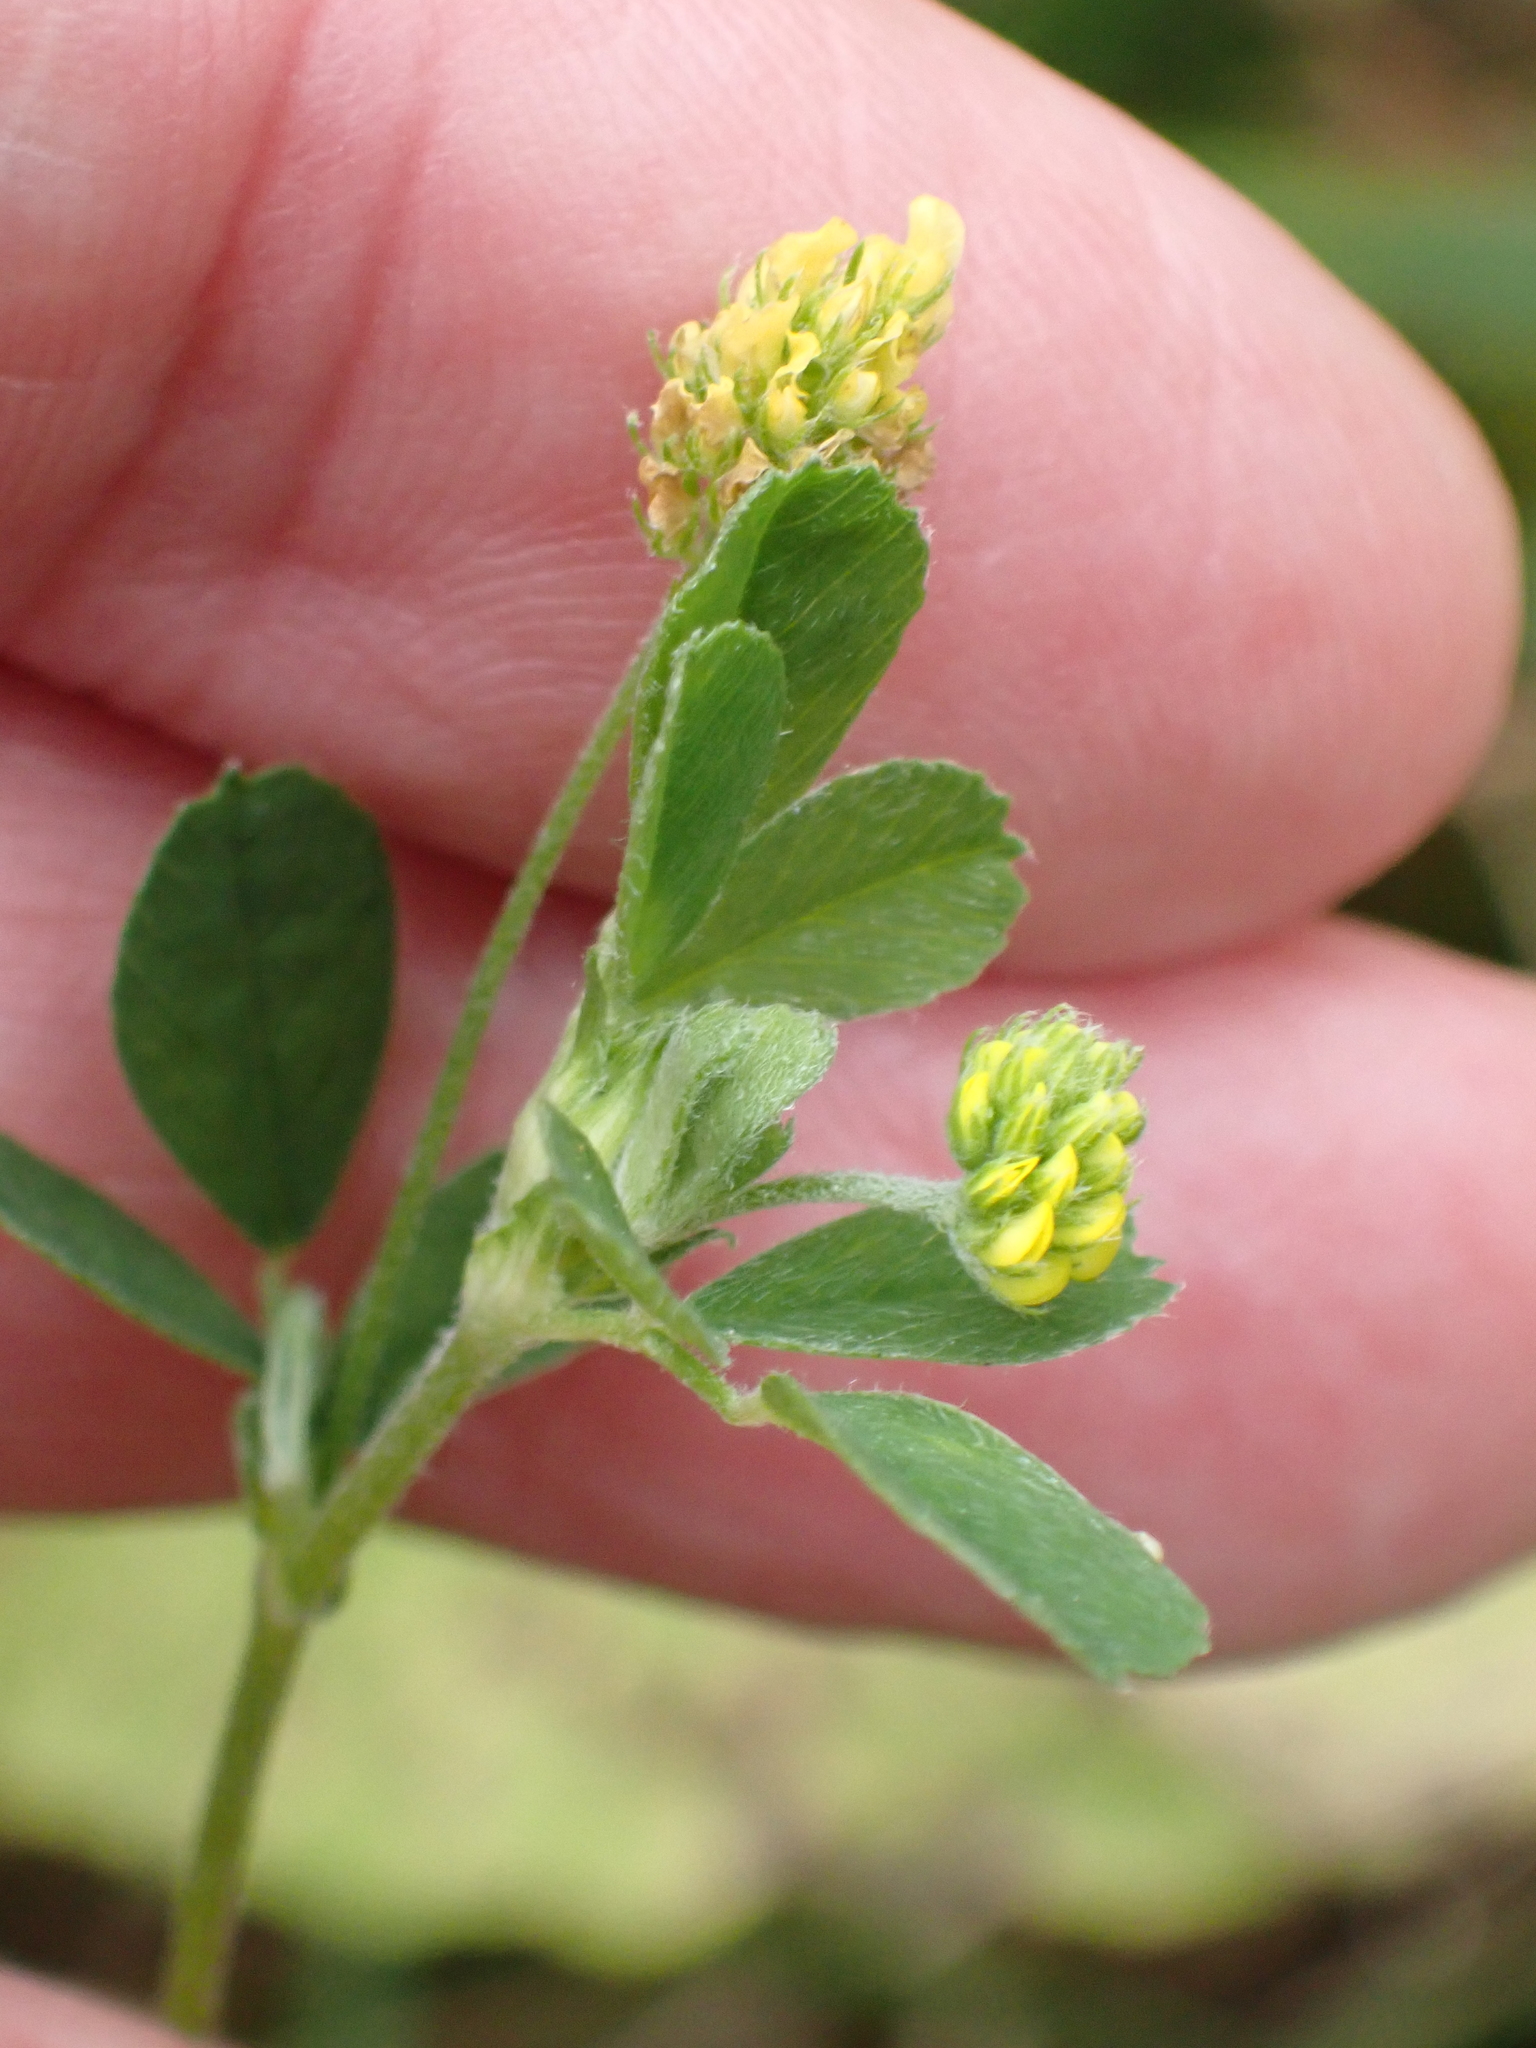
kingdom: Plantae
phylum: Tracheophyta
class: Magnoliopsida
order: Fabales
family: Fabaceae
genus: Medicago
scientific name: Medicago lupulina
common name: Black medick
